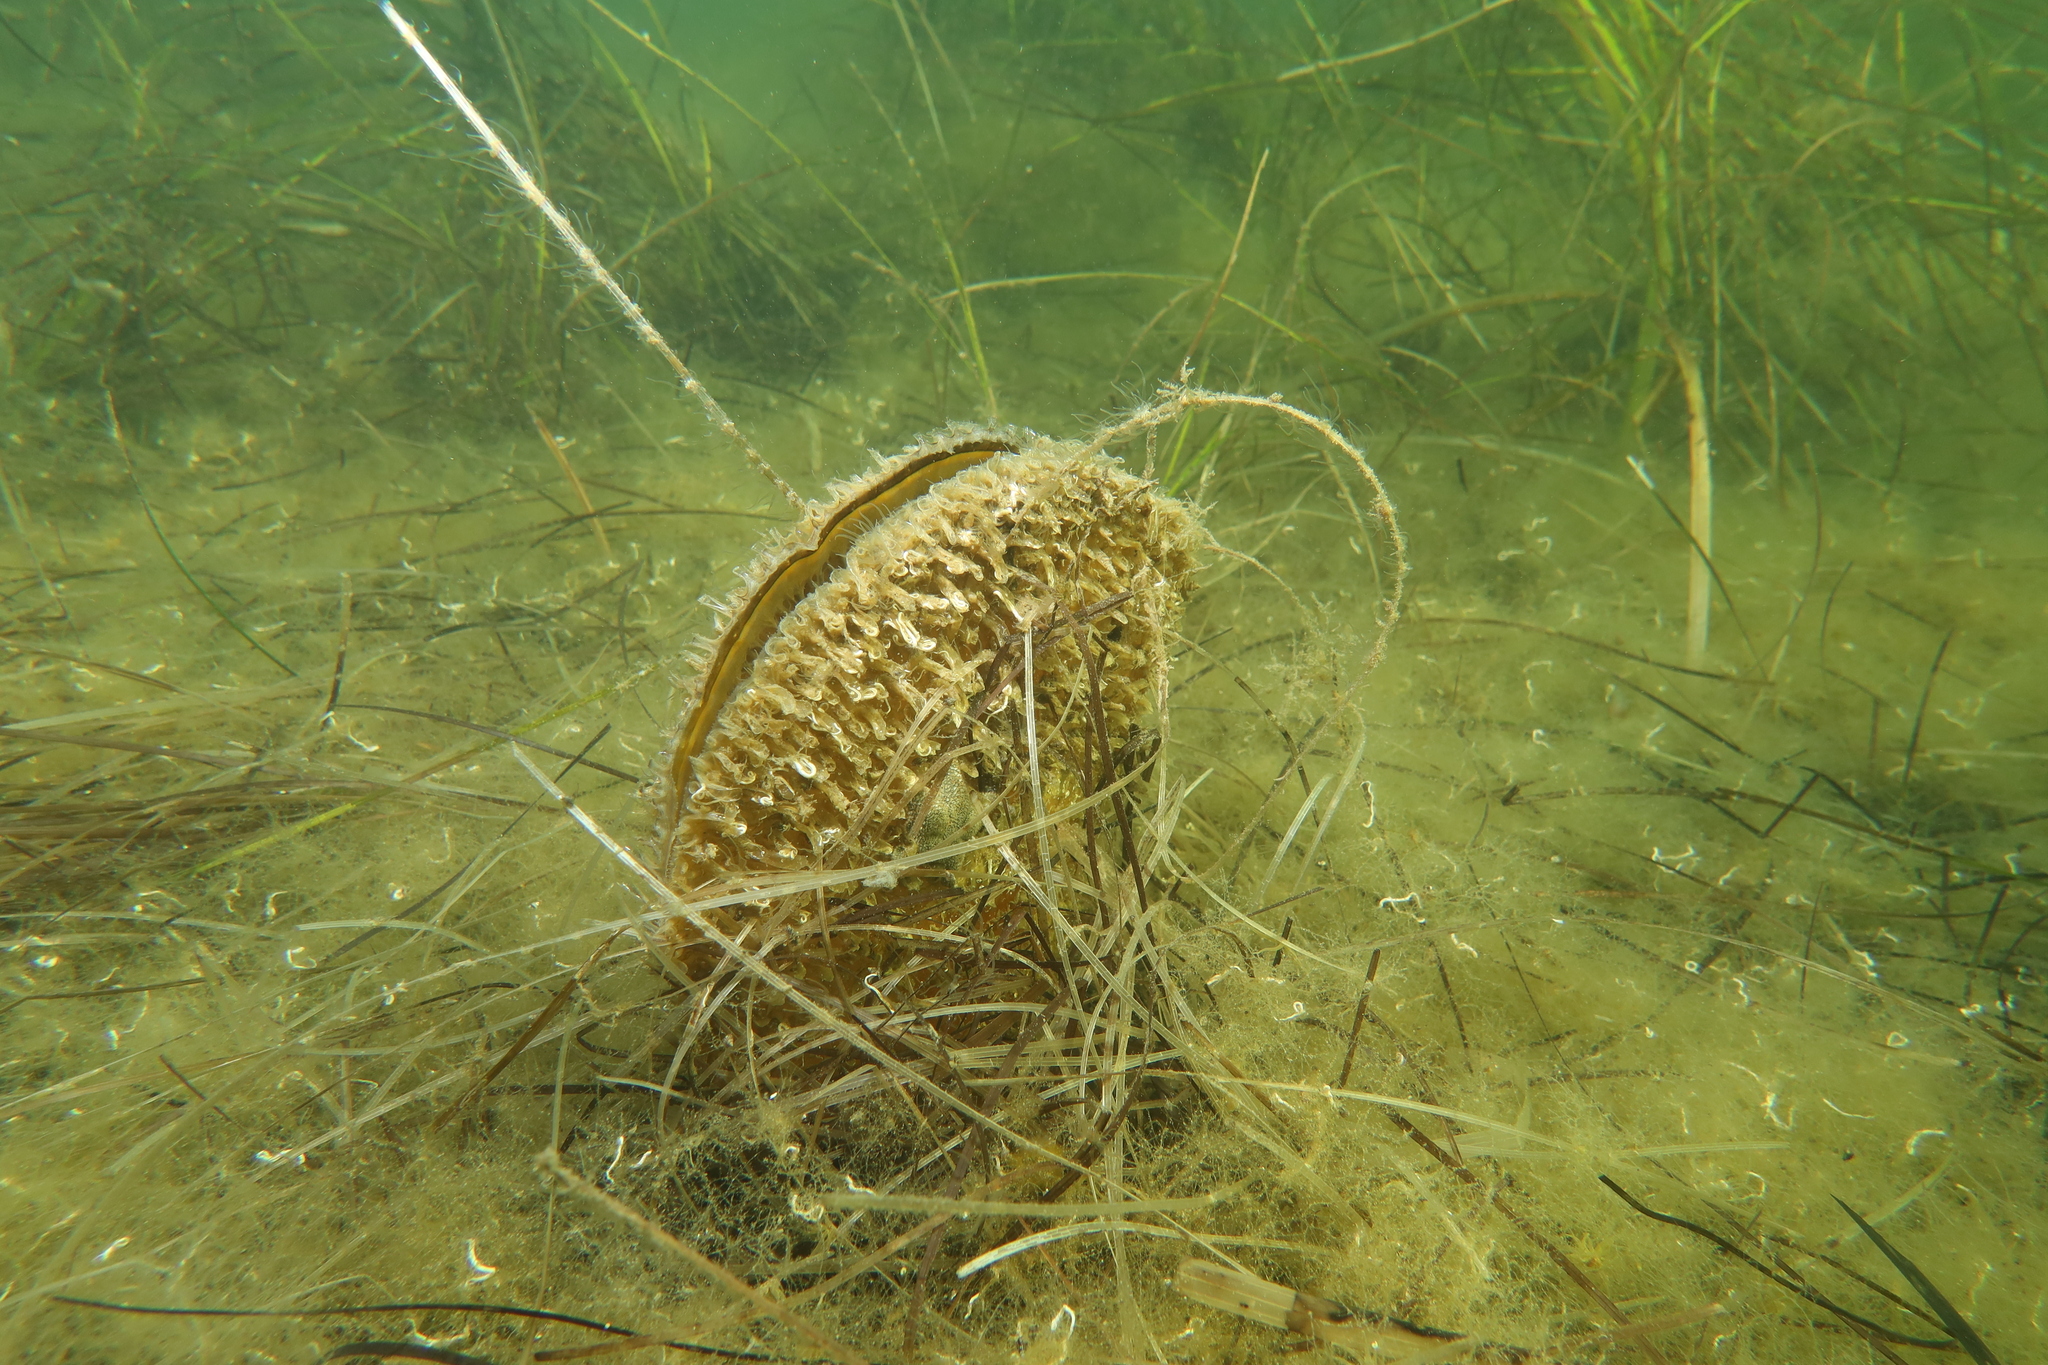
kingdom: Animalia
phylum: Mollusca
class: Bivalvia
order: Ostreida
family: Pinnidae
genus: Pinna
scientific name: Pinna nobilis
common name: Fan mussel
